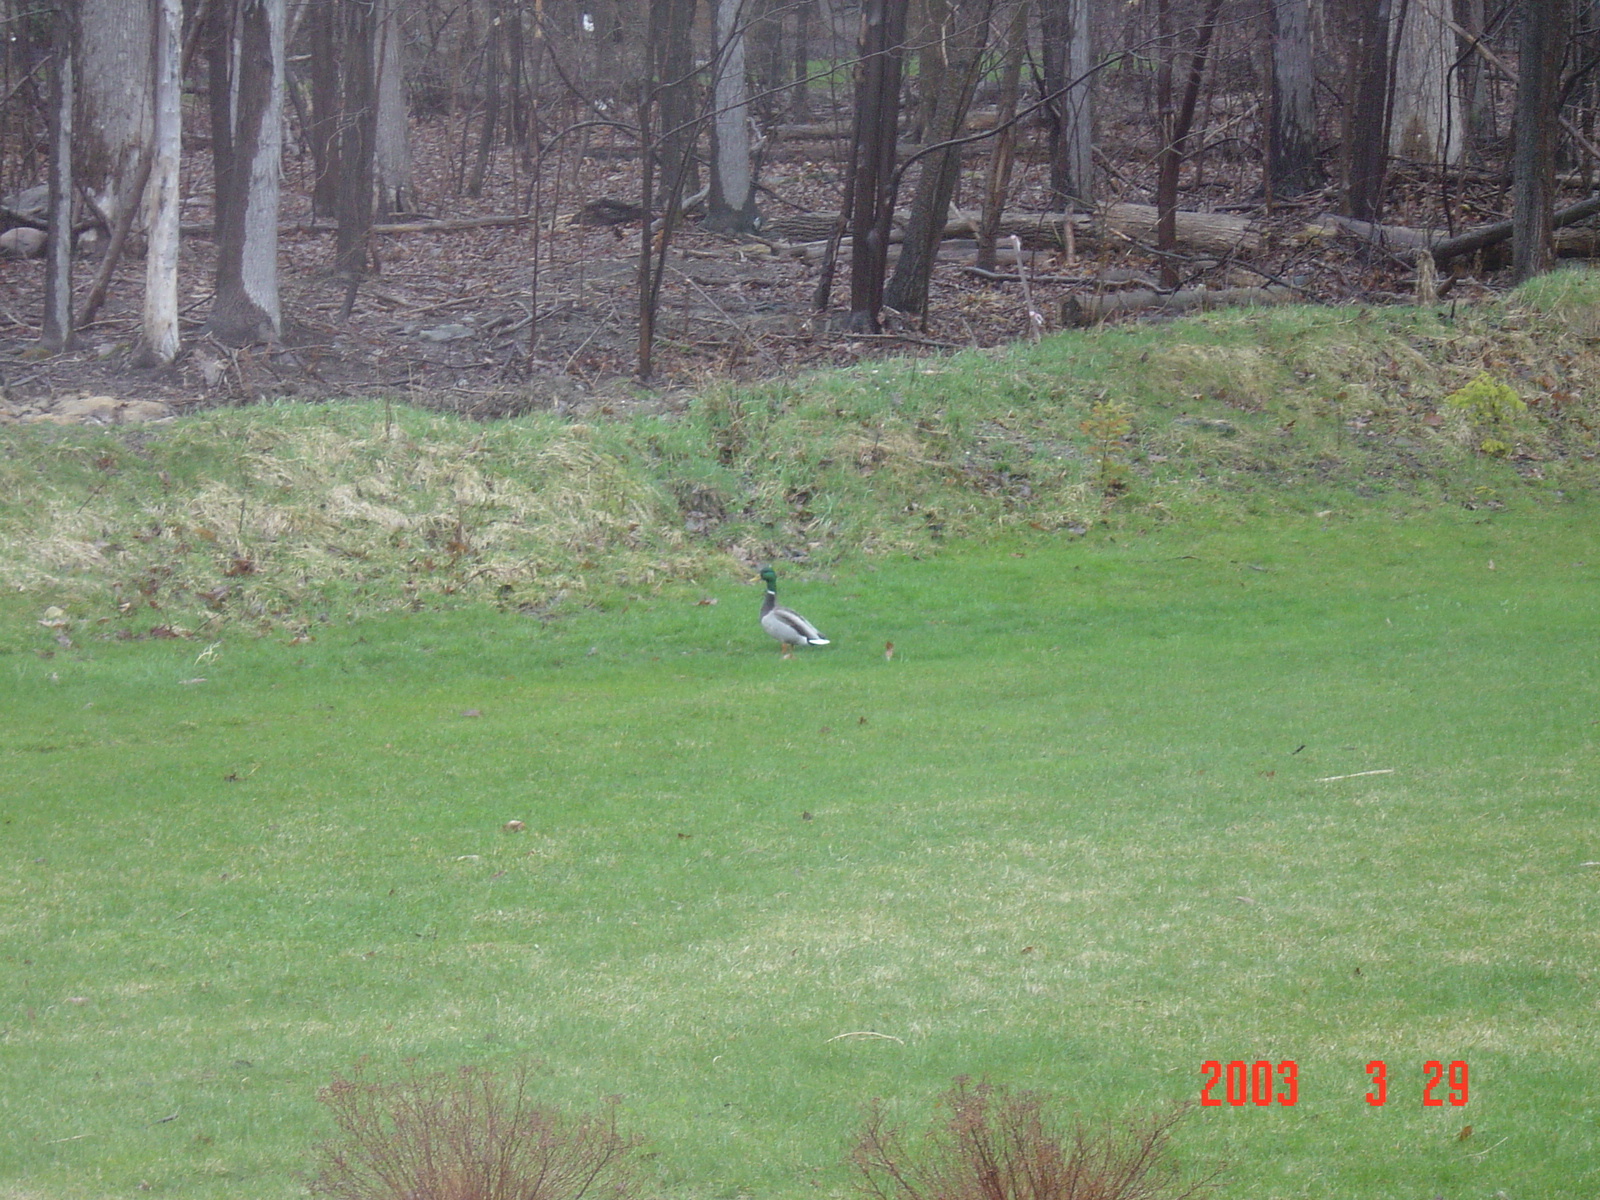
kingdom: Animalia
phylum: Chordata
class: Aves
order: Anseriformes
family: Anatidae
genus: Anas
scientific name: Anas platyrhynchos
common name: Mallard
